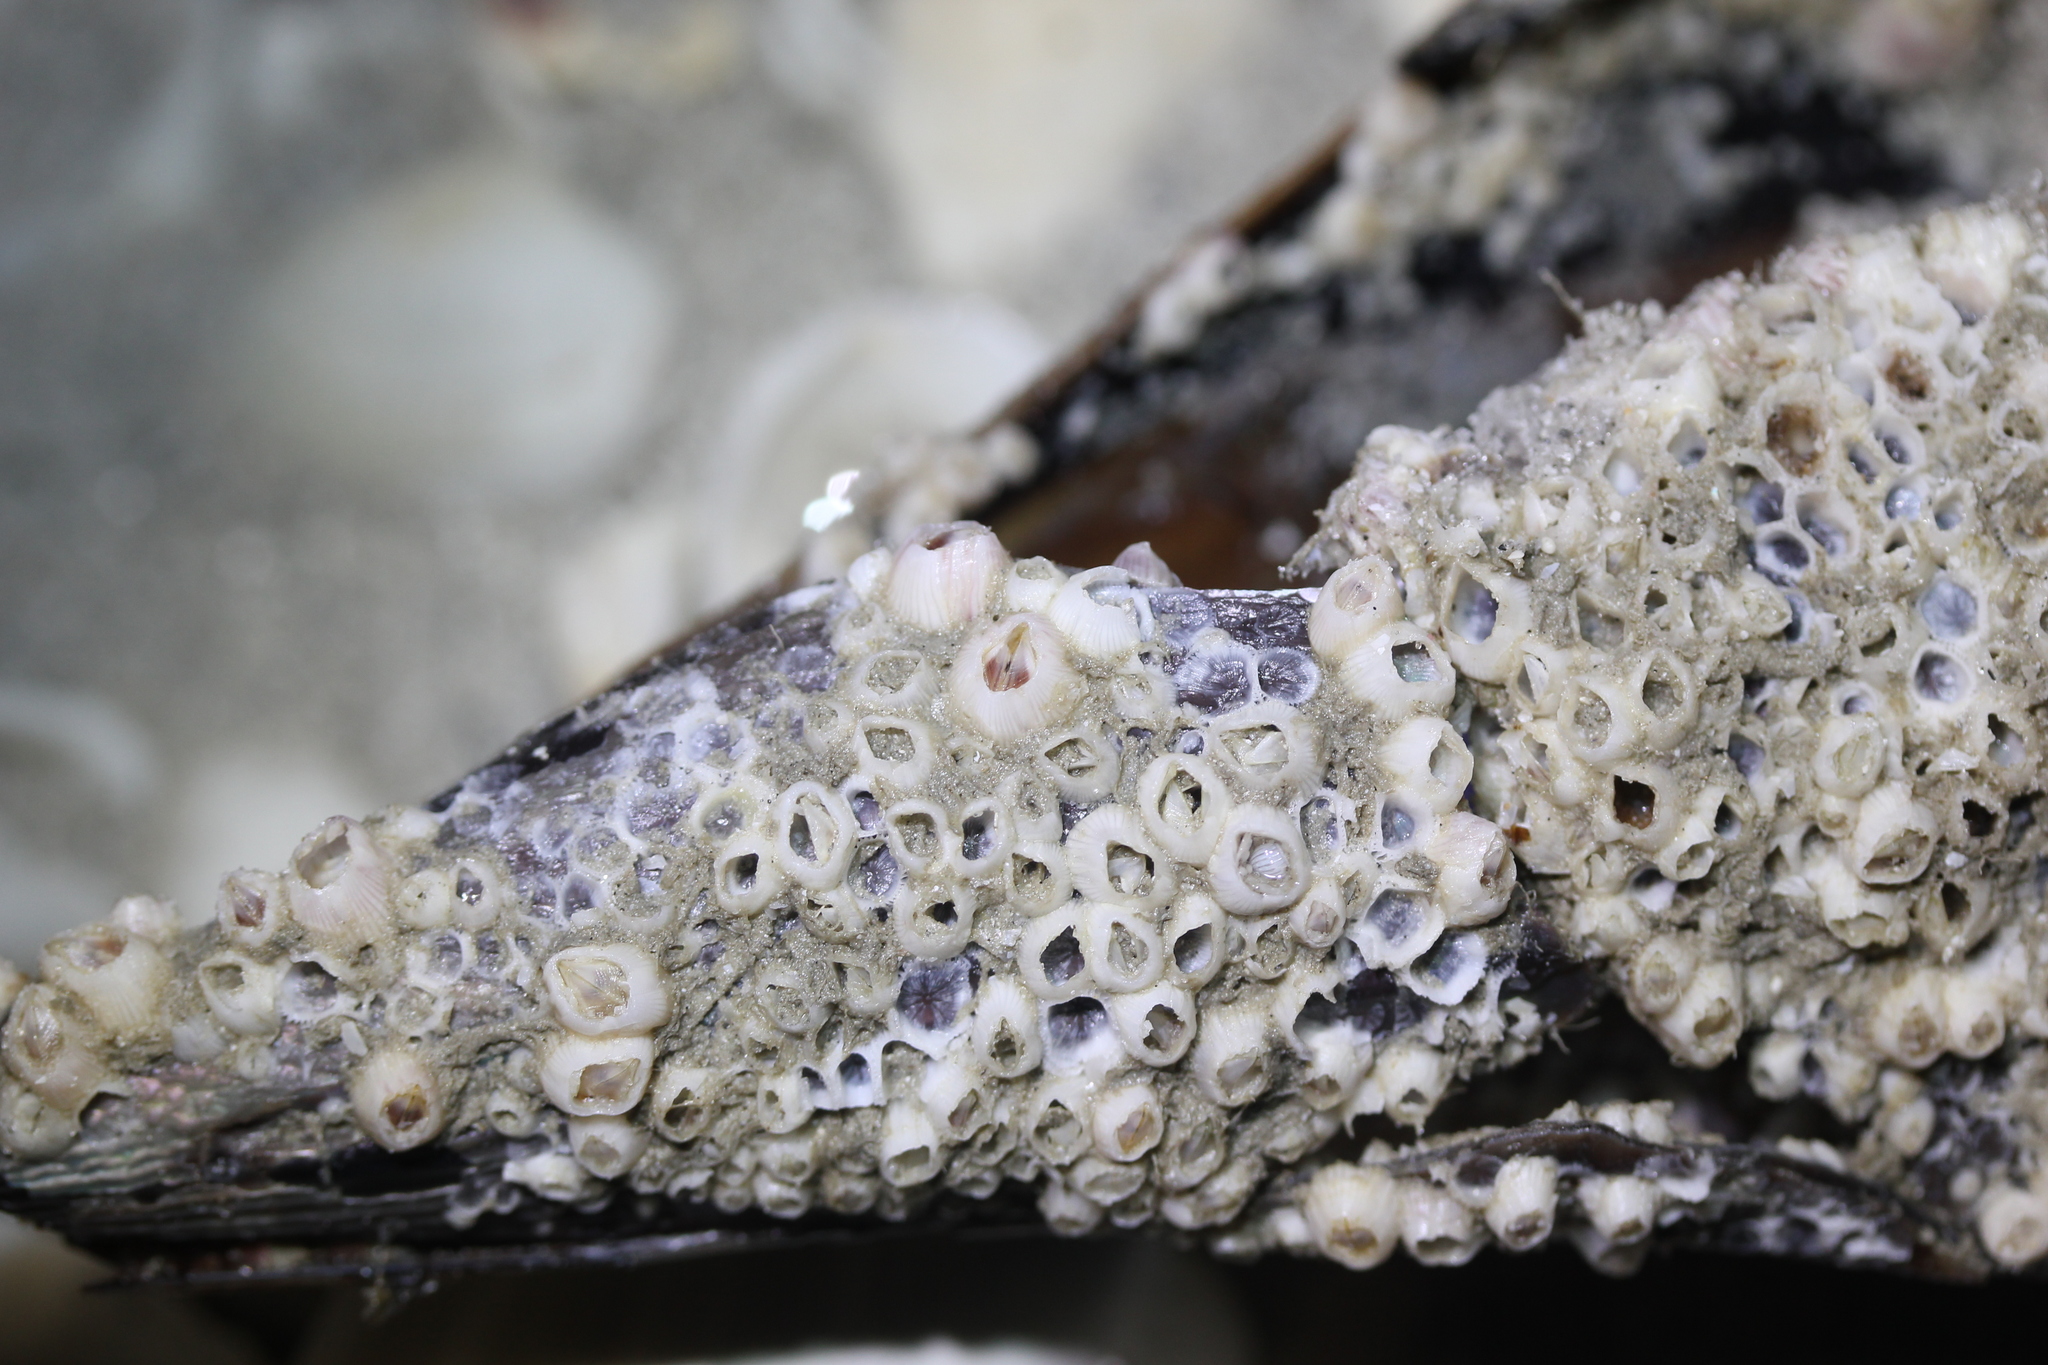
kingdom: Animalia
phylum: Arthropoda
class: Maxillopoda
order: Sessilia
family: Balanidae
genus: Amphibalanus
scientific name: Amphibalanus venustus
